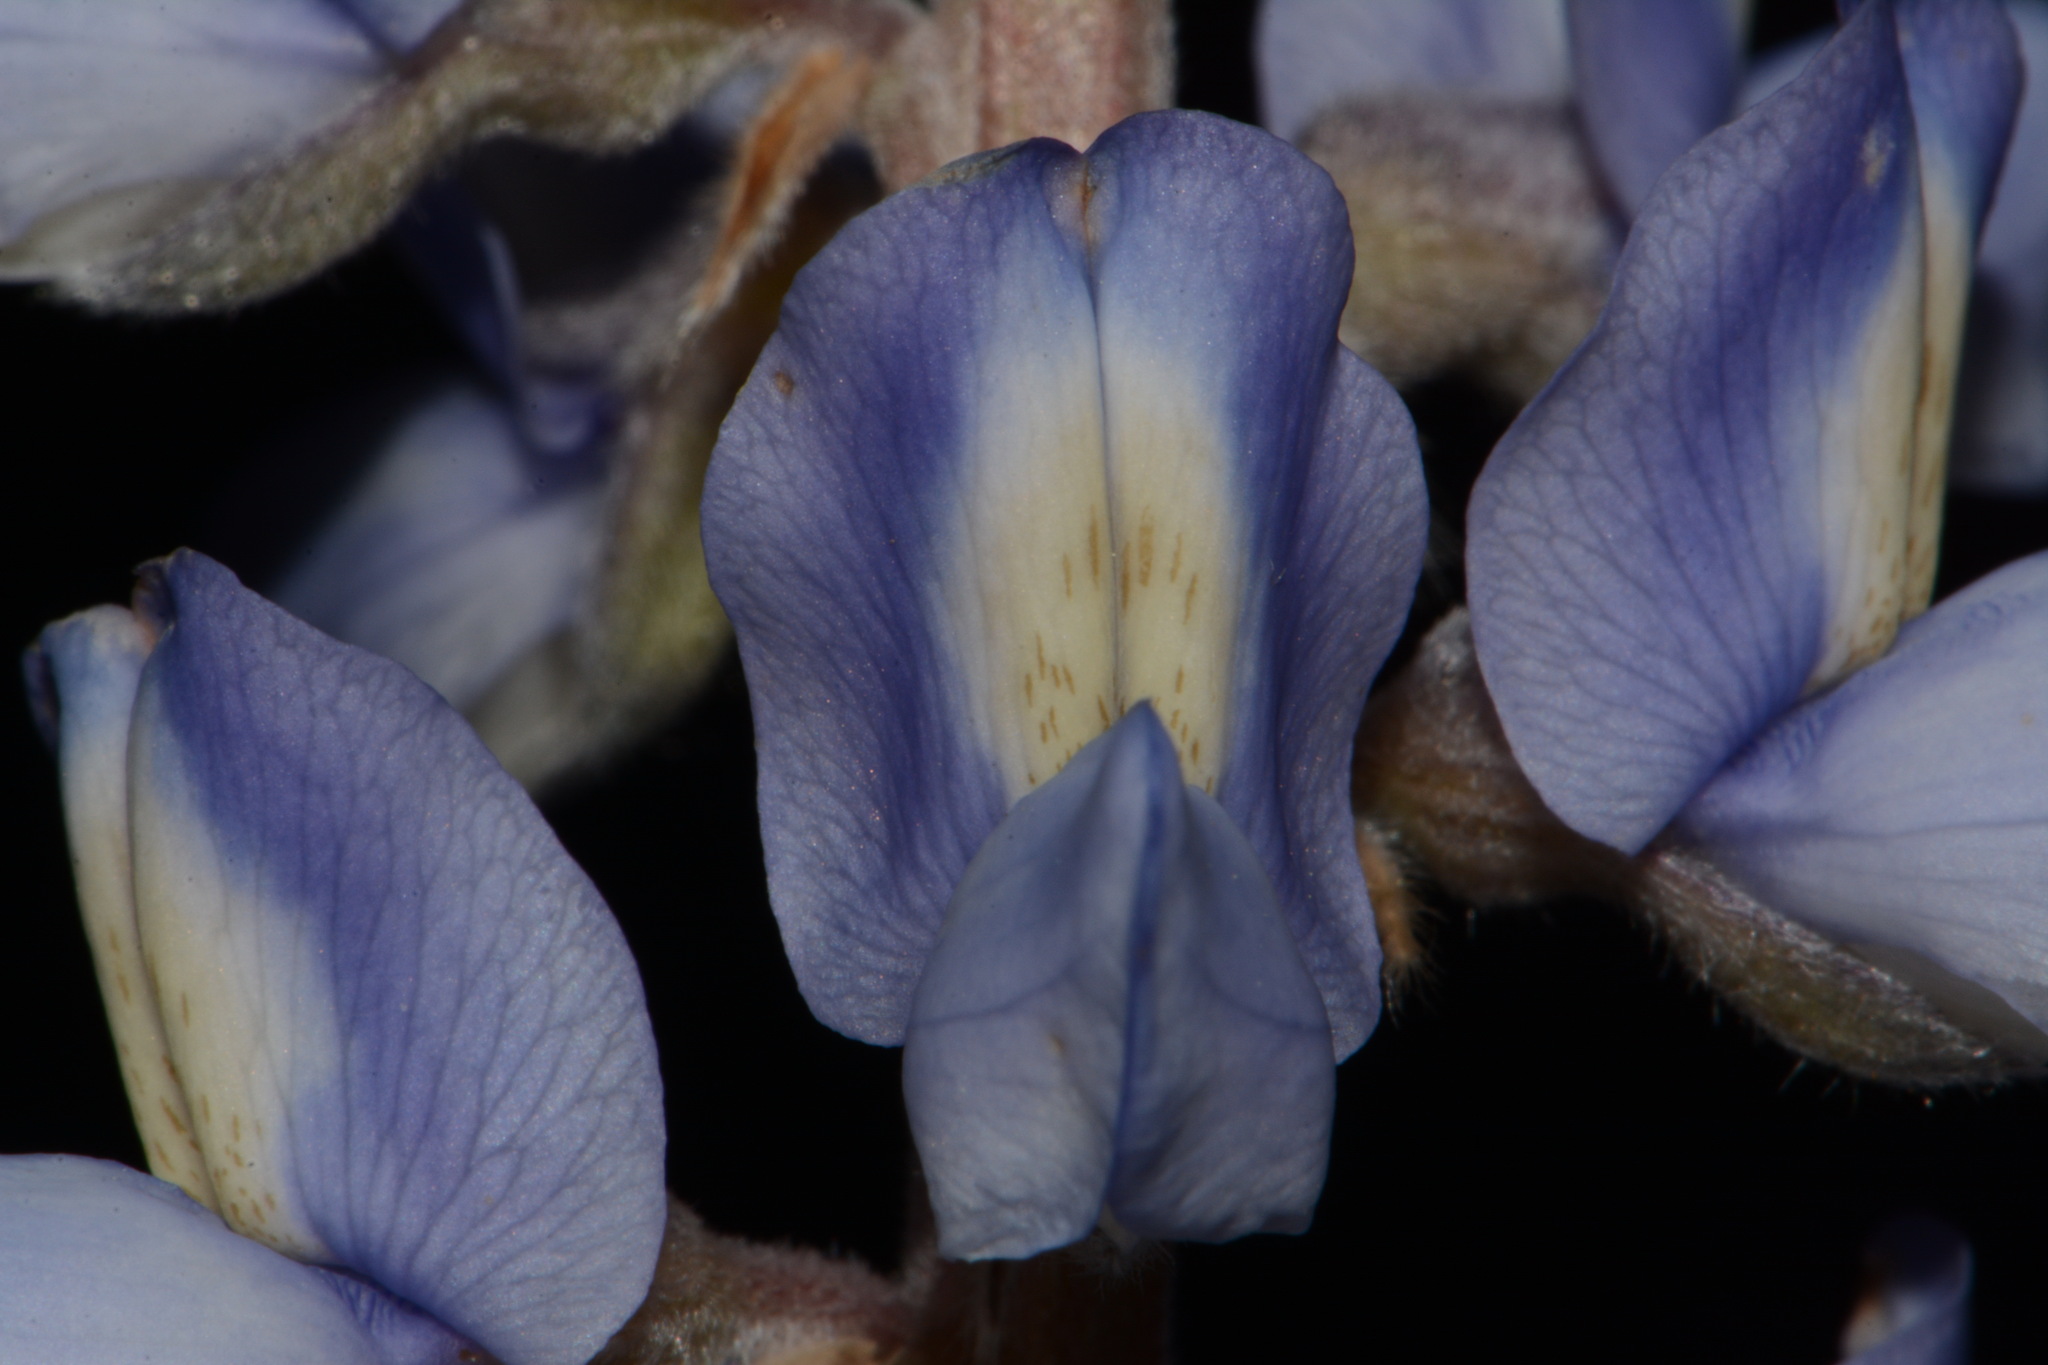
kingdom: Plantae
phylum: Tracheophyta
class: Magnoliopsida
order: Fabales
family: Fabaceae
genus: Lupinus
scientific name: Lupinus diffusus
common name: Oak ridge lupine
